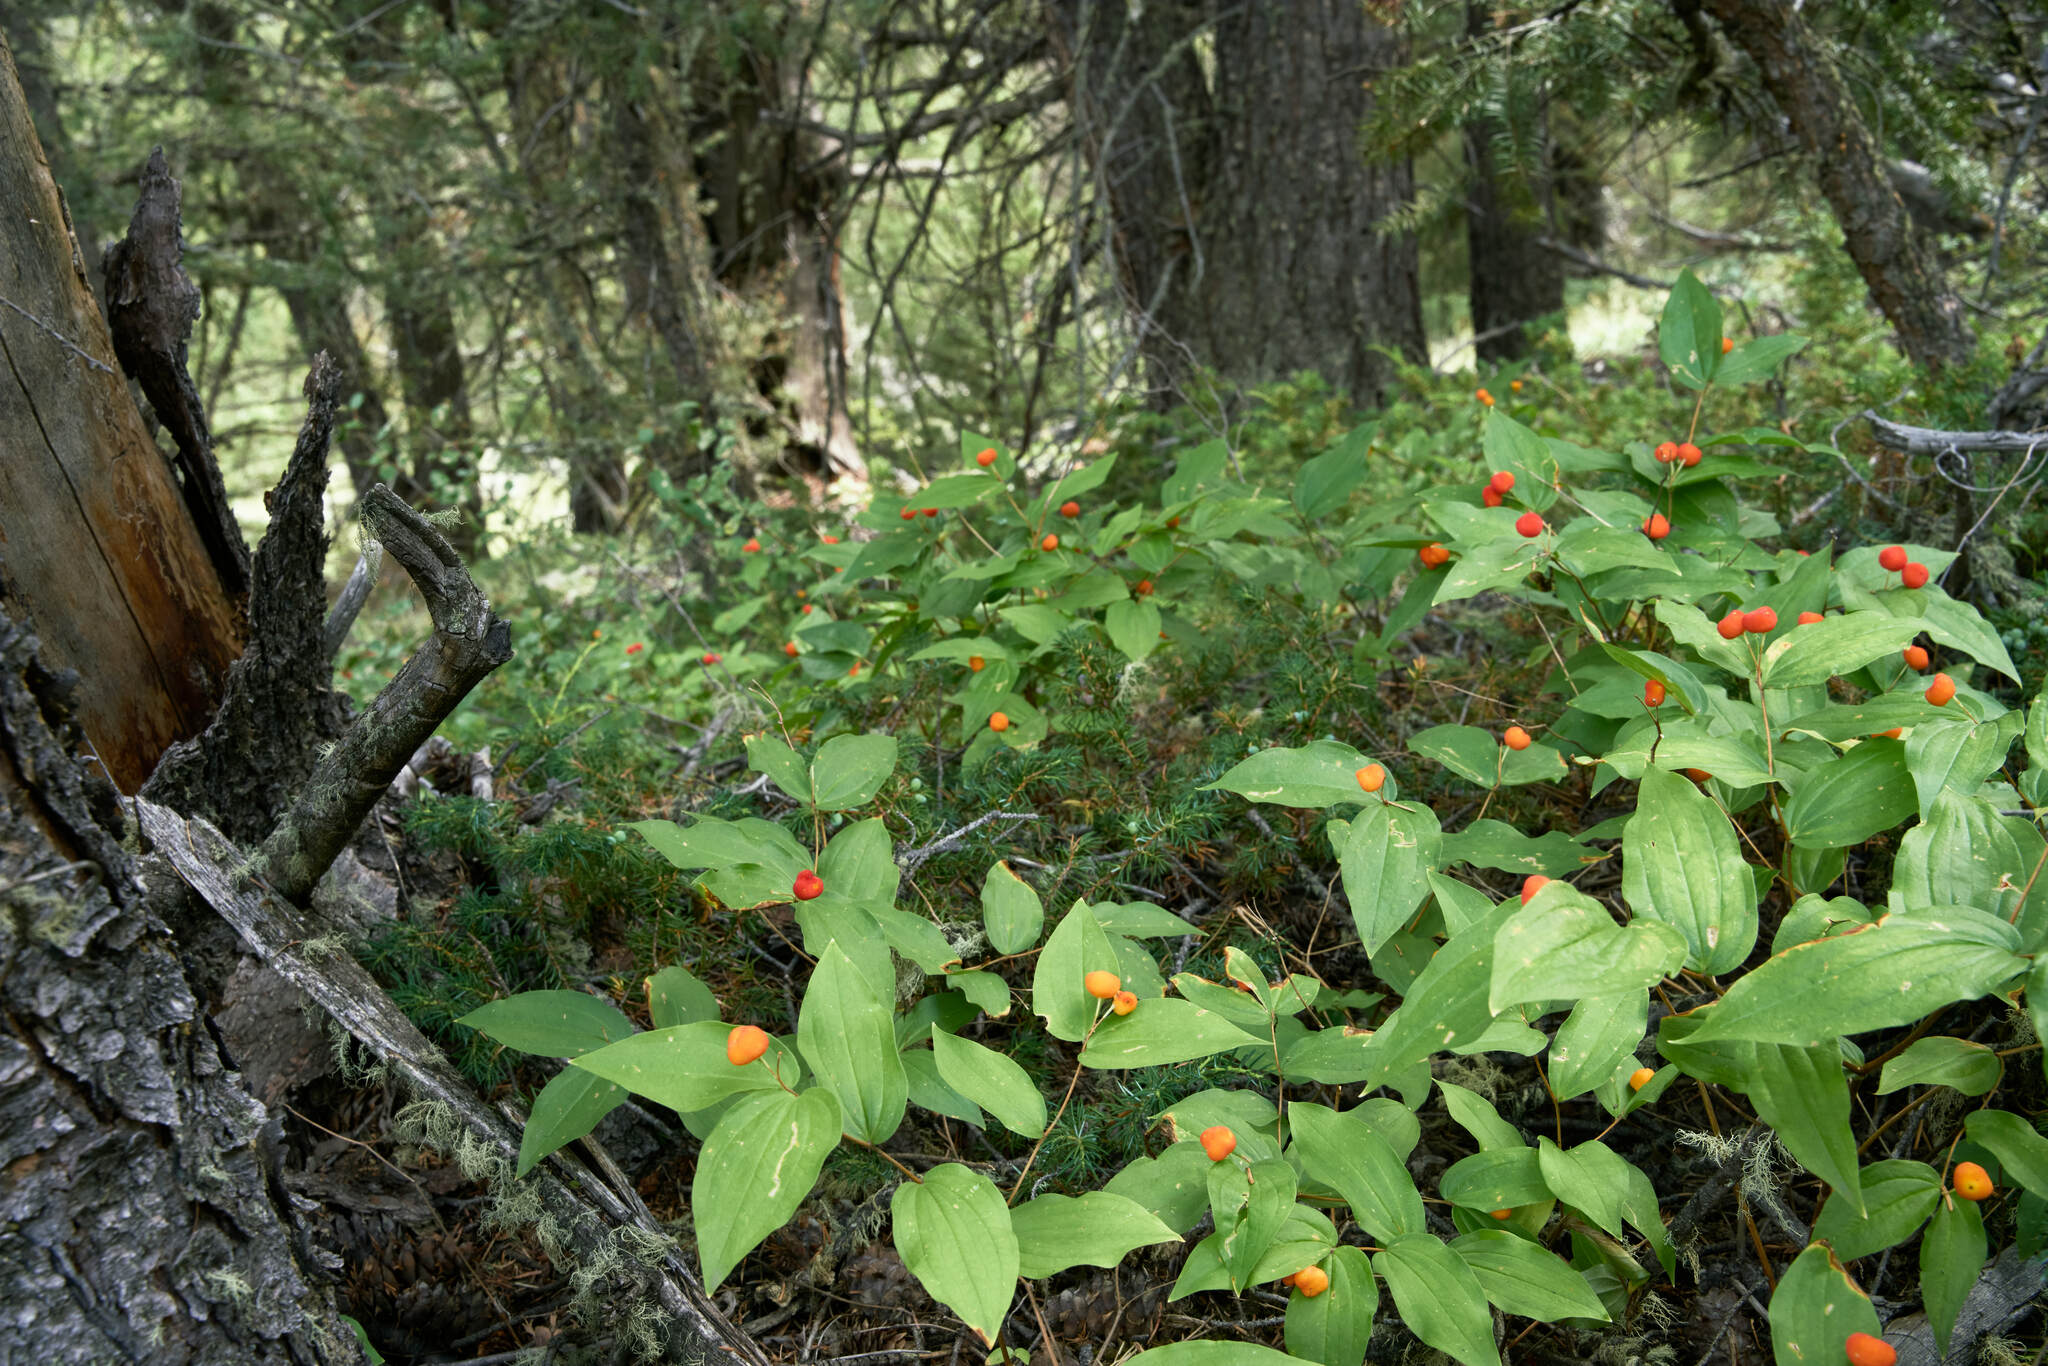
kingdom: Plantae
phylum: Tracheophyta
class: Liliopsida
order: Liliales
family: Liliaceae
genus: Prosartes
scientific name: Prosartes trachycarpa
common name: Rough-fruit fairy-bells
